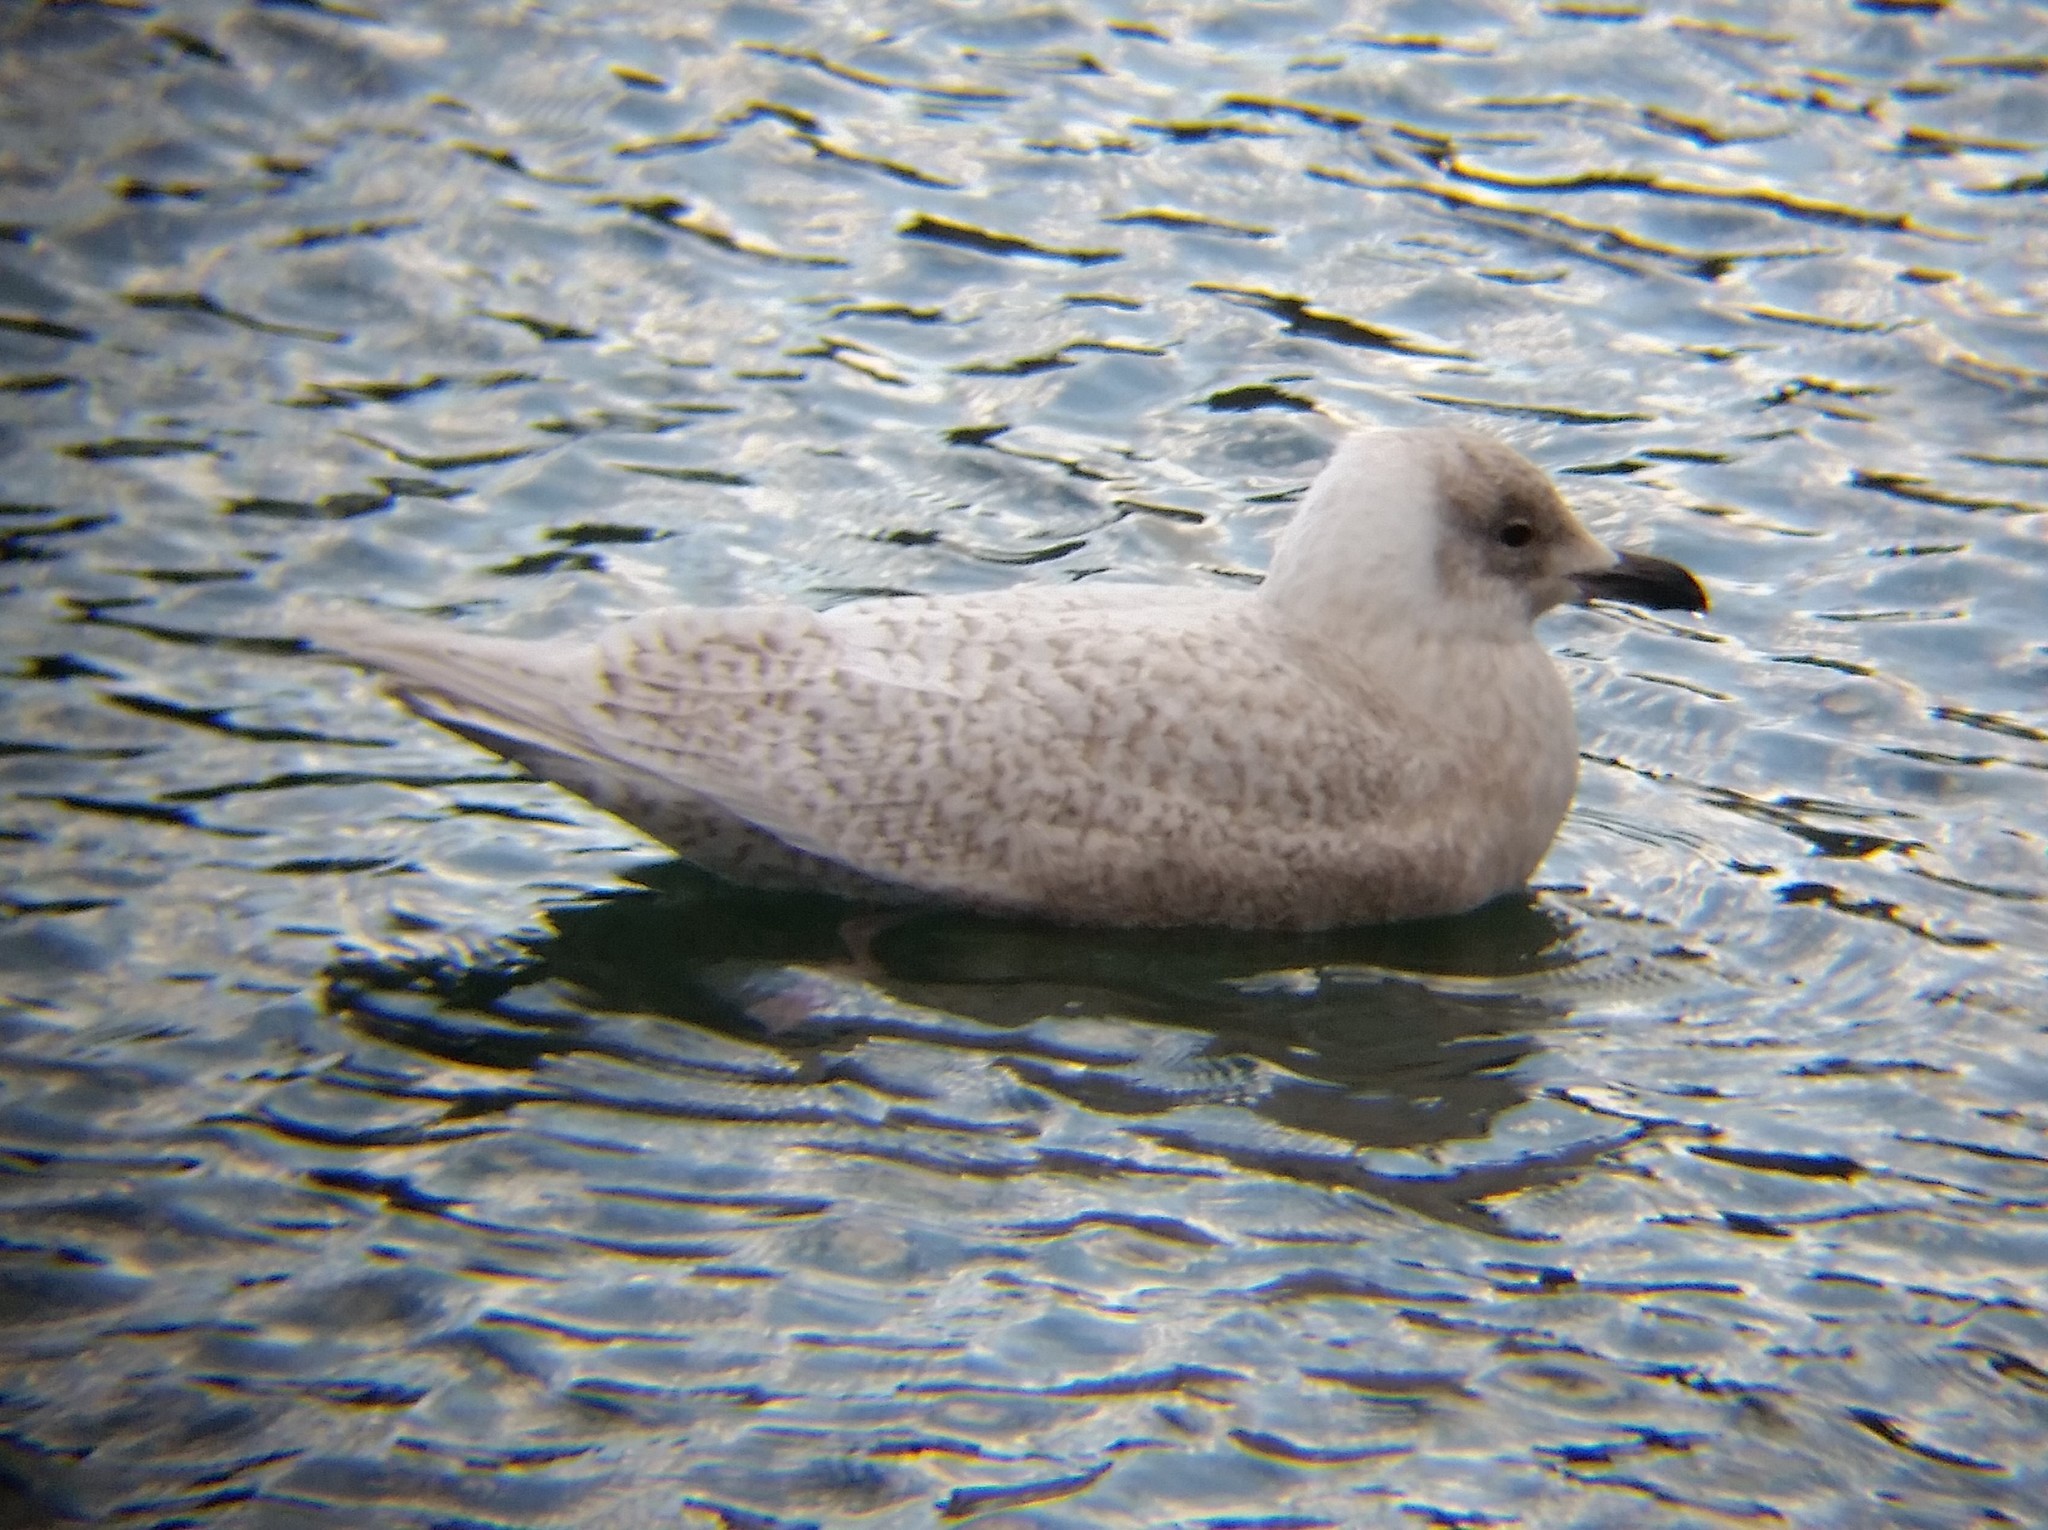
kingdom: Animalia
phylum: Chordata
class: Aves
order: Charadriiformes
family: Laridae
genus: Larus
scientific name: Larus glaucoides
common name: Iceland gull
